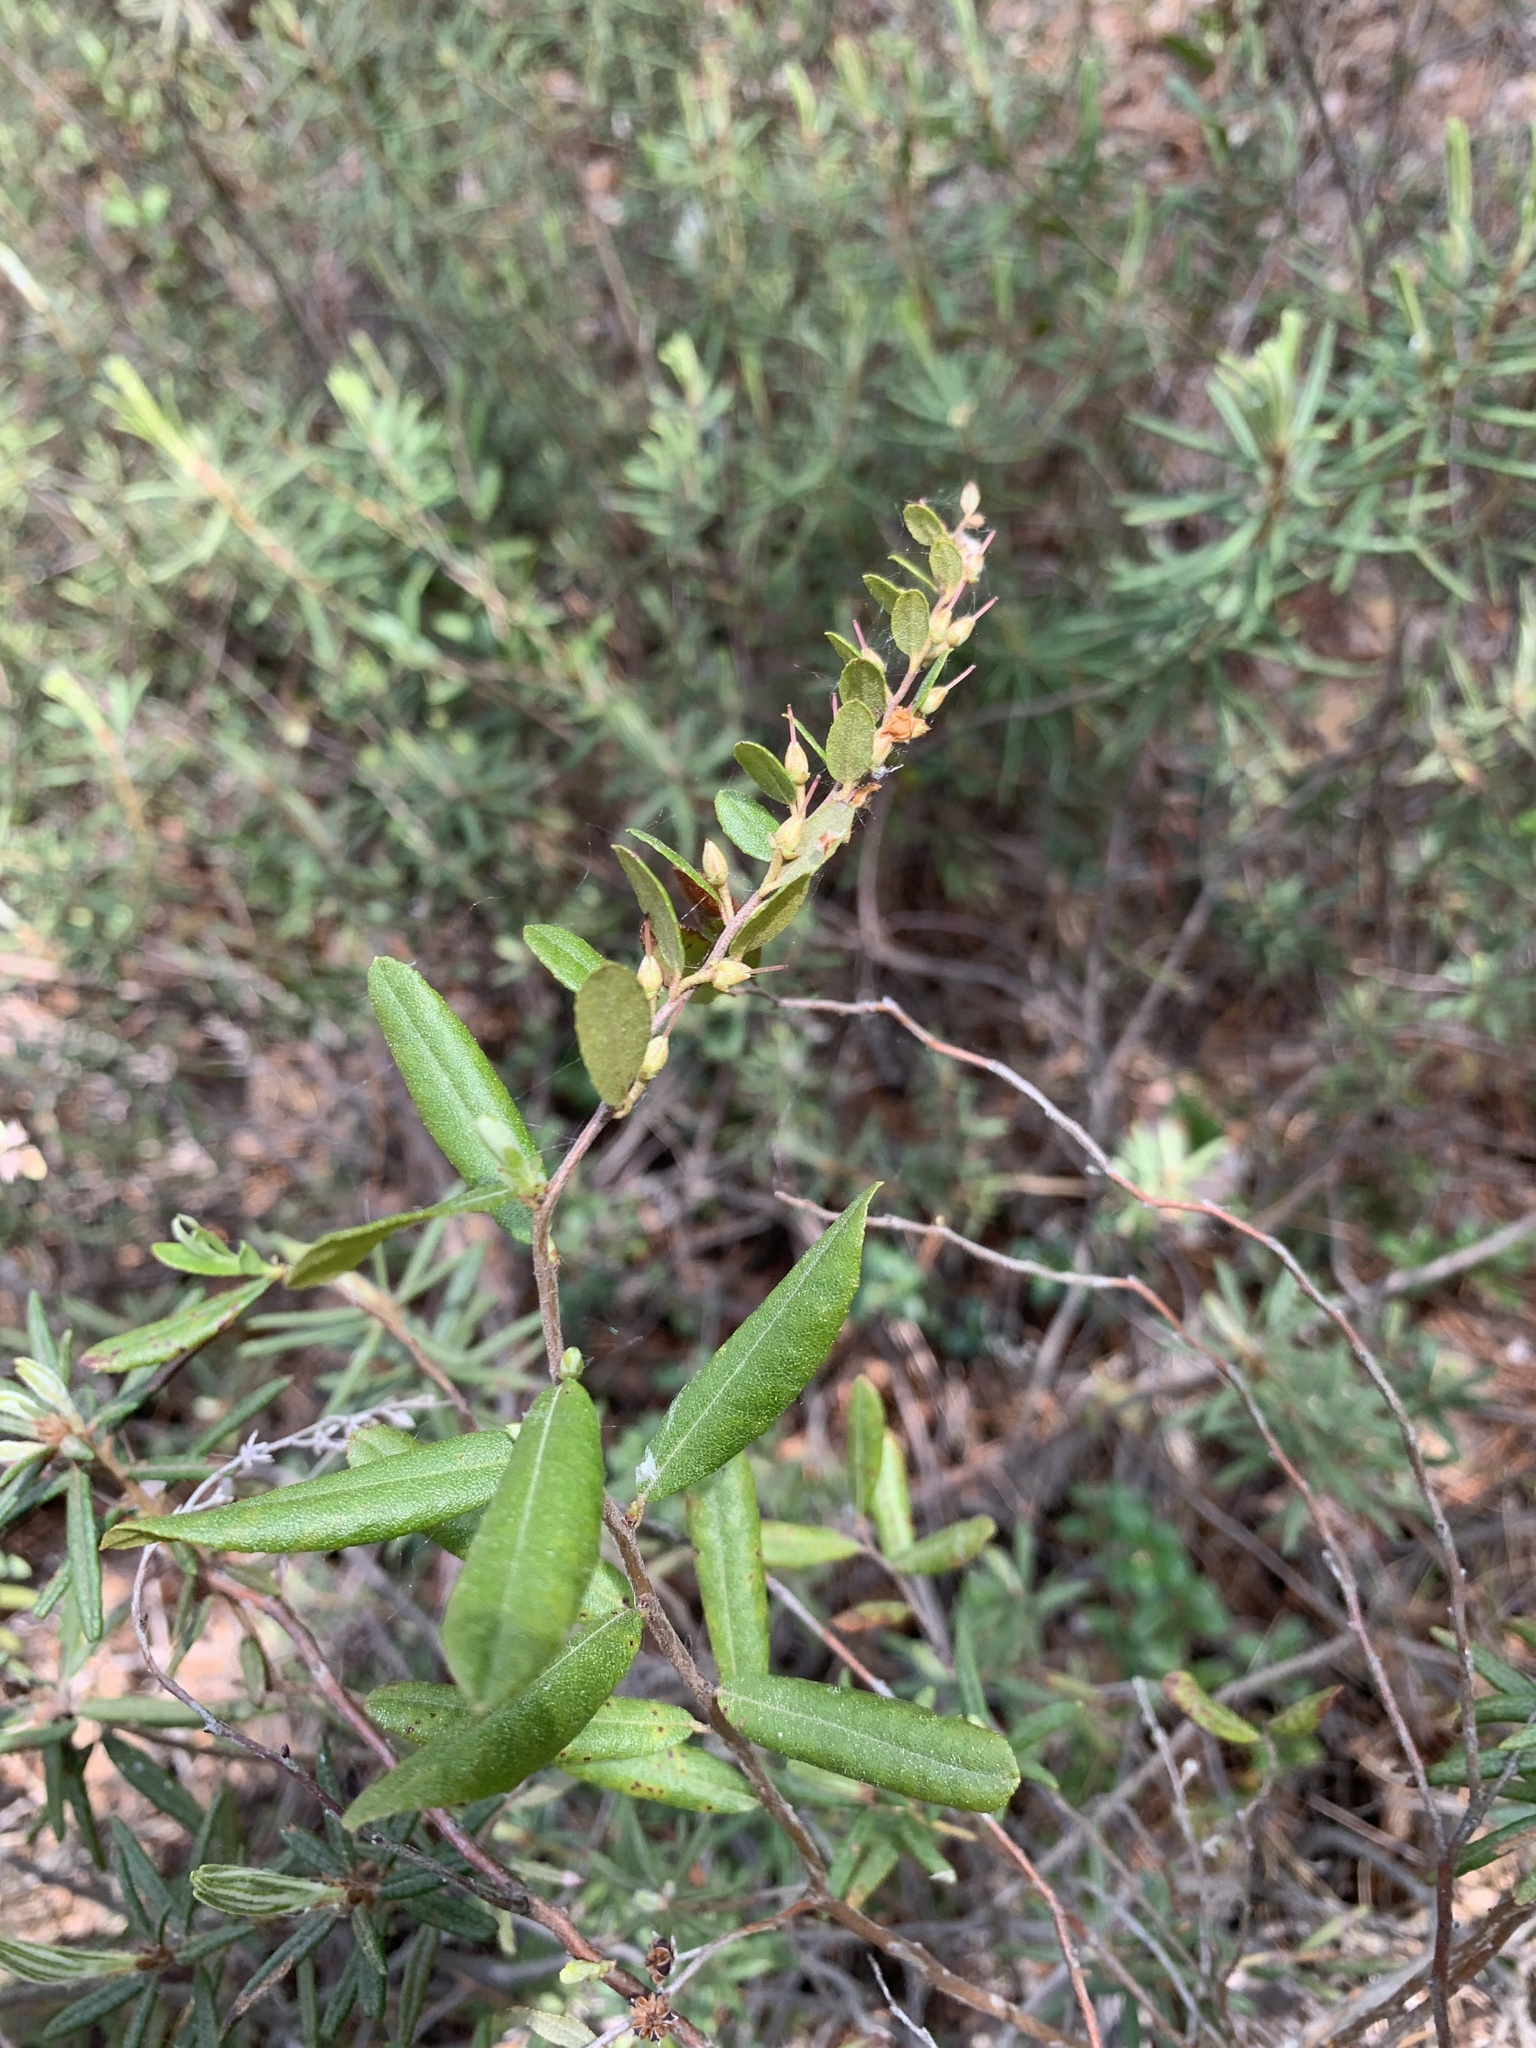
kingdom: Plantae
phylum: Tracheophyta
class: Magnoliopsida
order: Ericales
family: Ericaceae
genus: Chamaedaphne
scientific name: Chamaedaphne calyculata
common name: Leatherleaf
